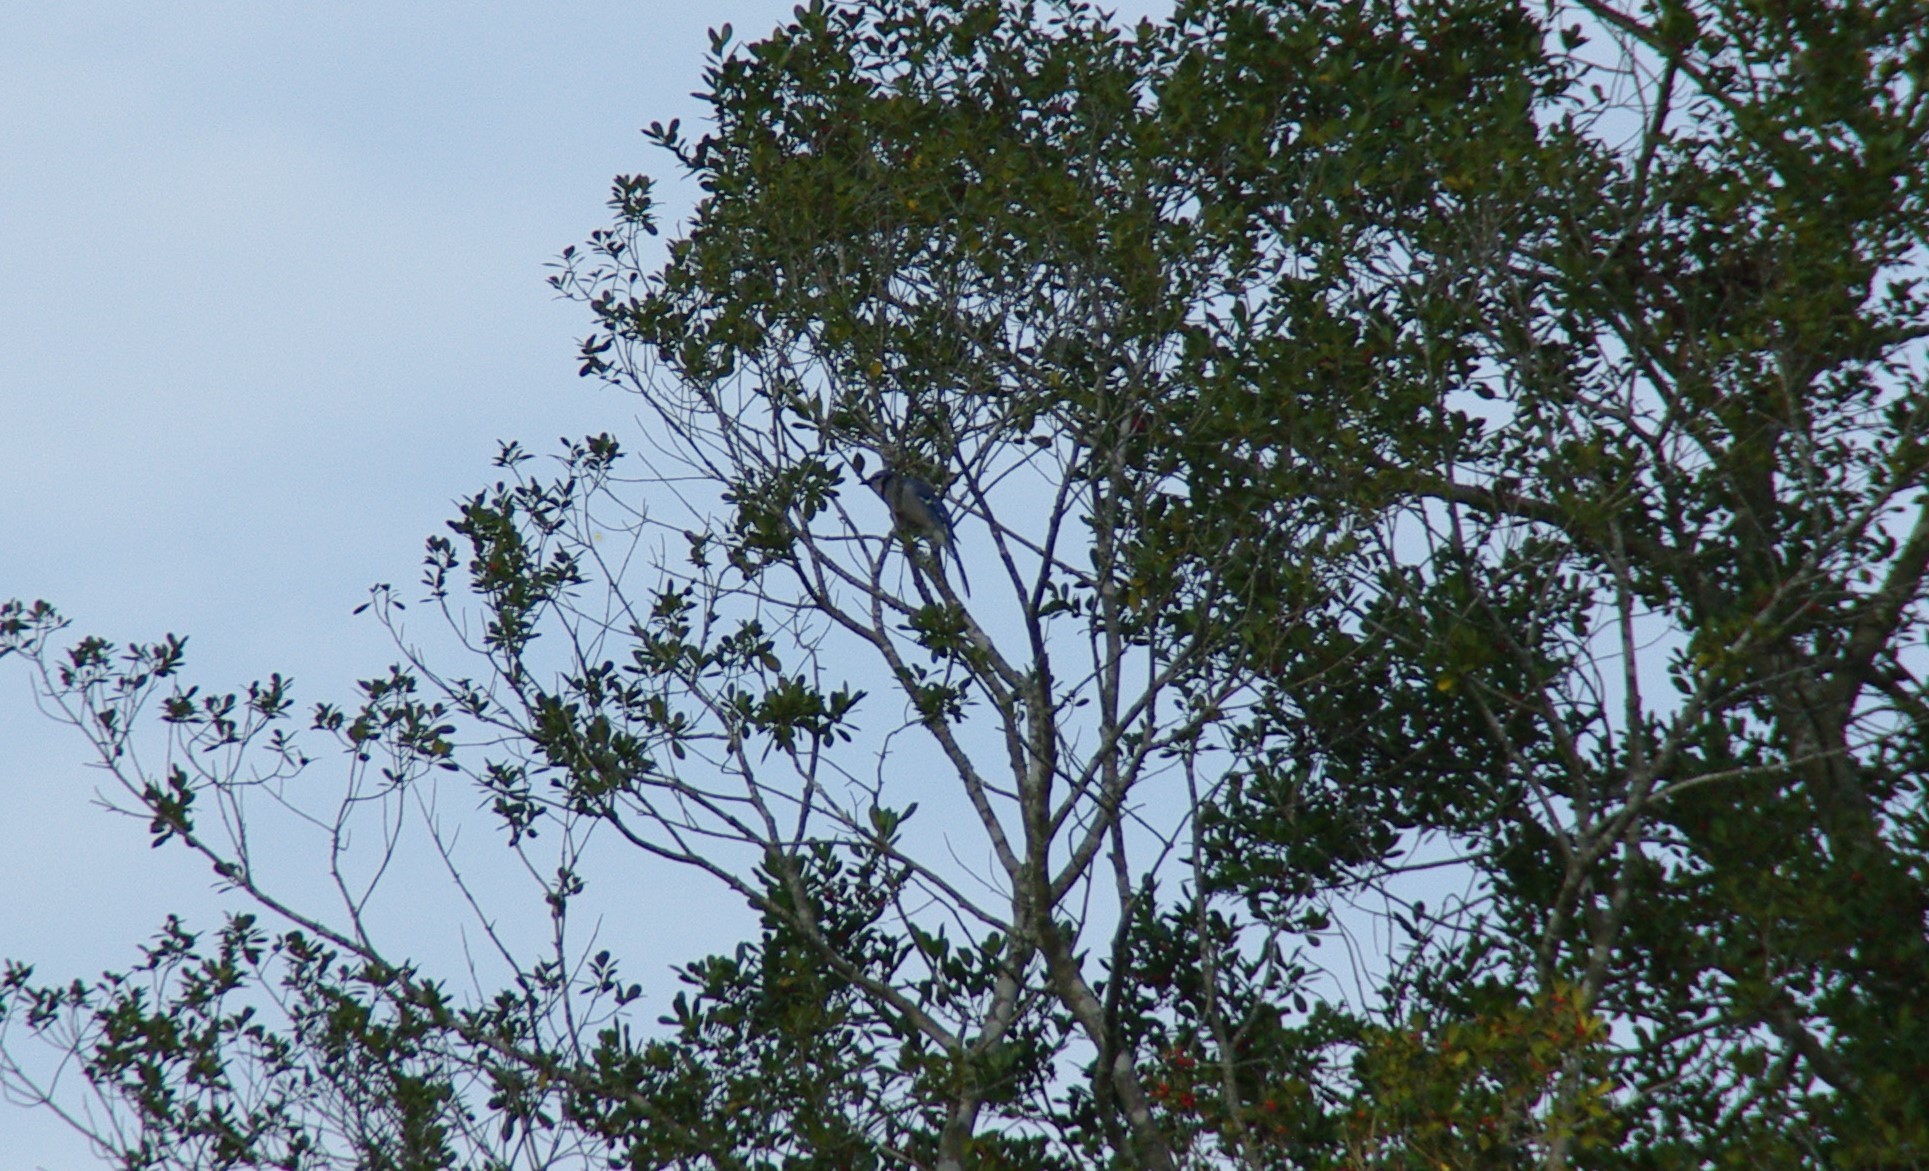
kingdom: Animalia
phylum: Chordata
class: Aves
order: Passeriformes
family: Corvidae
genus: Cyanocitta
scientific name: Cyanocitta cristata
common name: Blue jay
